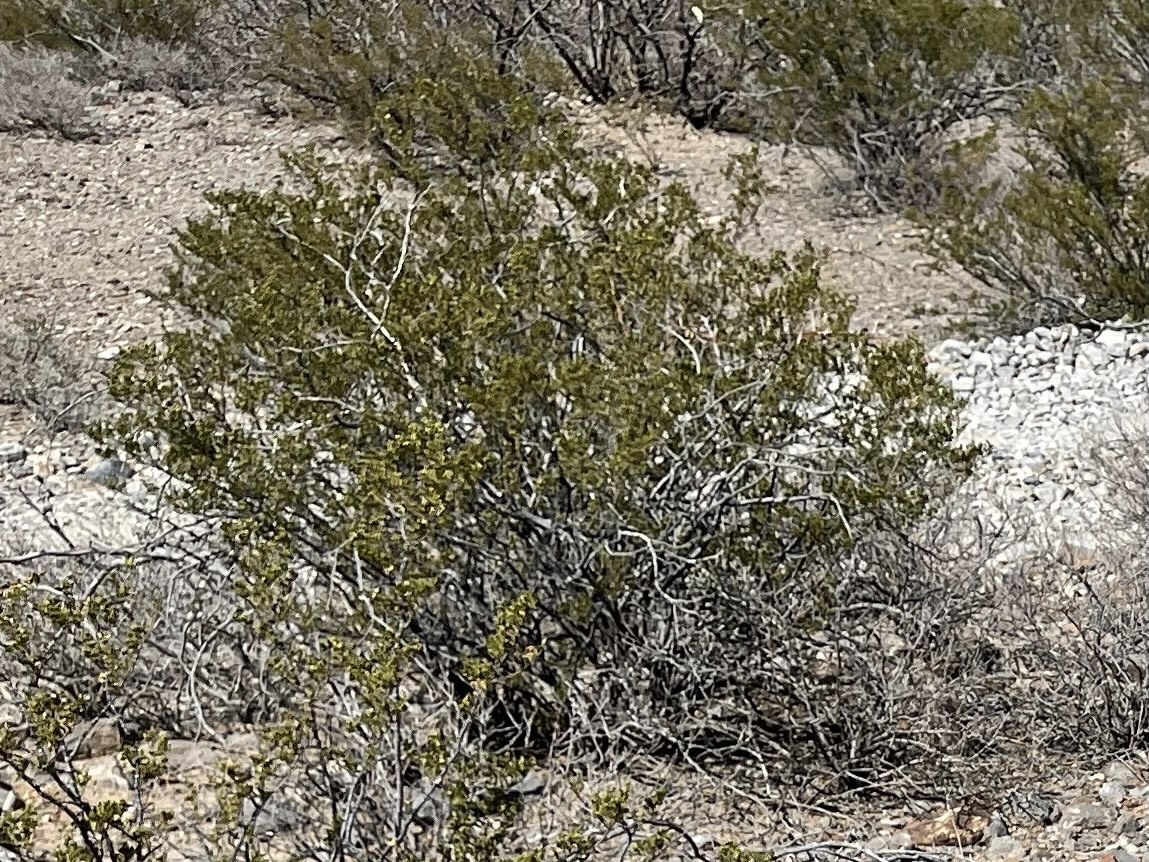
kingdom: Plantae
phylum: Tracheophyta
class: Magnoliopsida
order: Zygophyllales
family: Zygophyllaceae
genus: Larrea
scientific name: Larrea tridentata
